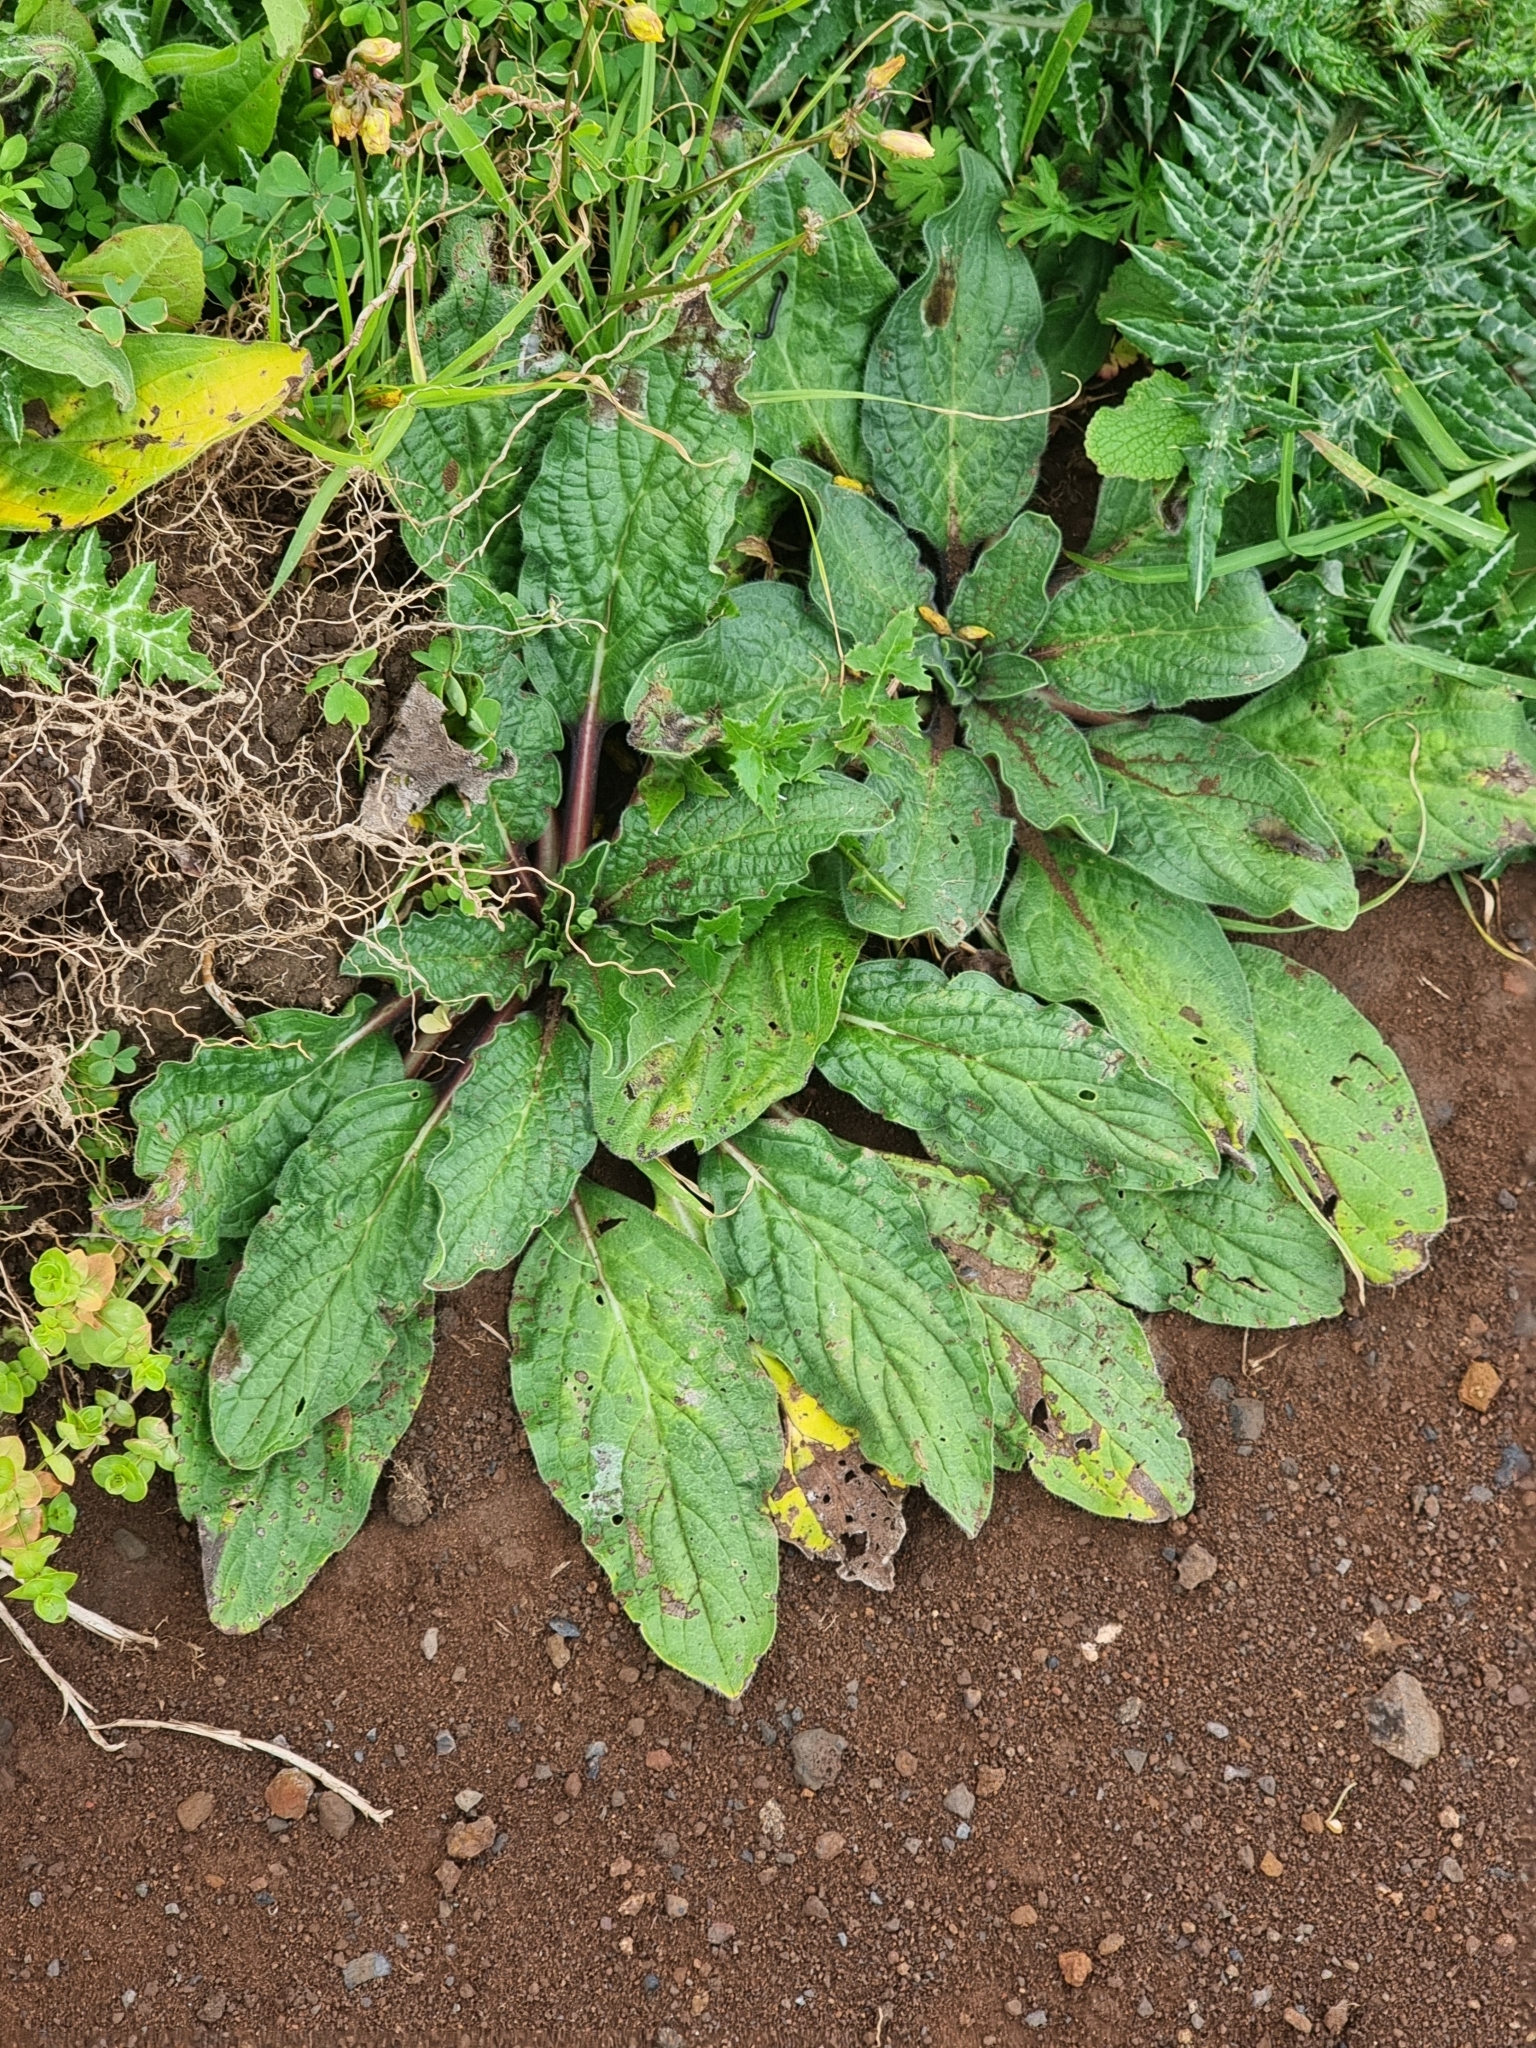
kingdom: Plantae
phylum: Tracheophyta
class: Magnoliopsida
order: Boraginales
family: Boraginaceae
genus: Echium
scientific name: Echium plantagineum
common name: Purple viper's-bugloss
